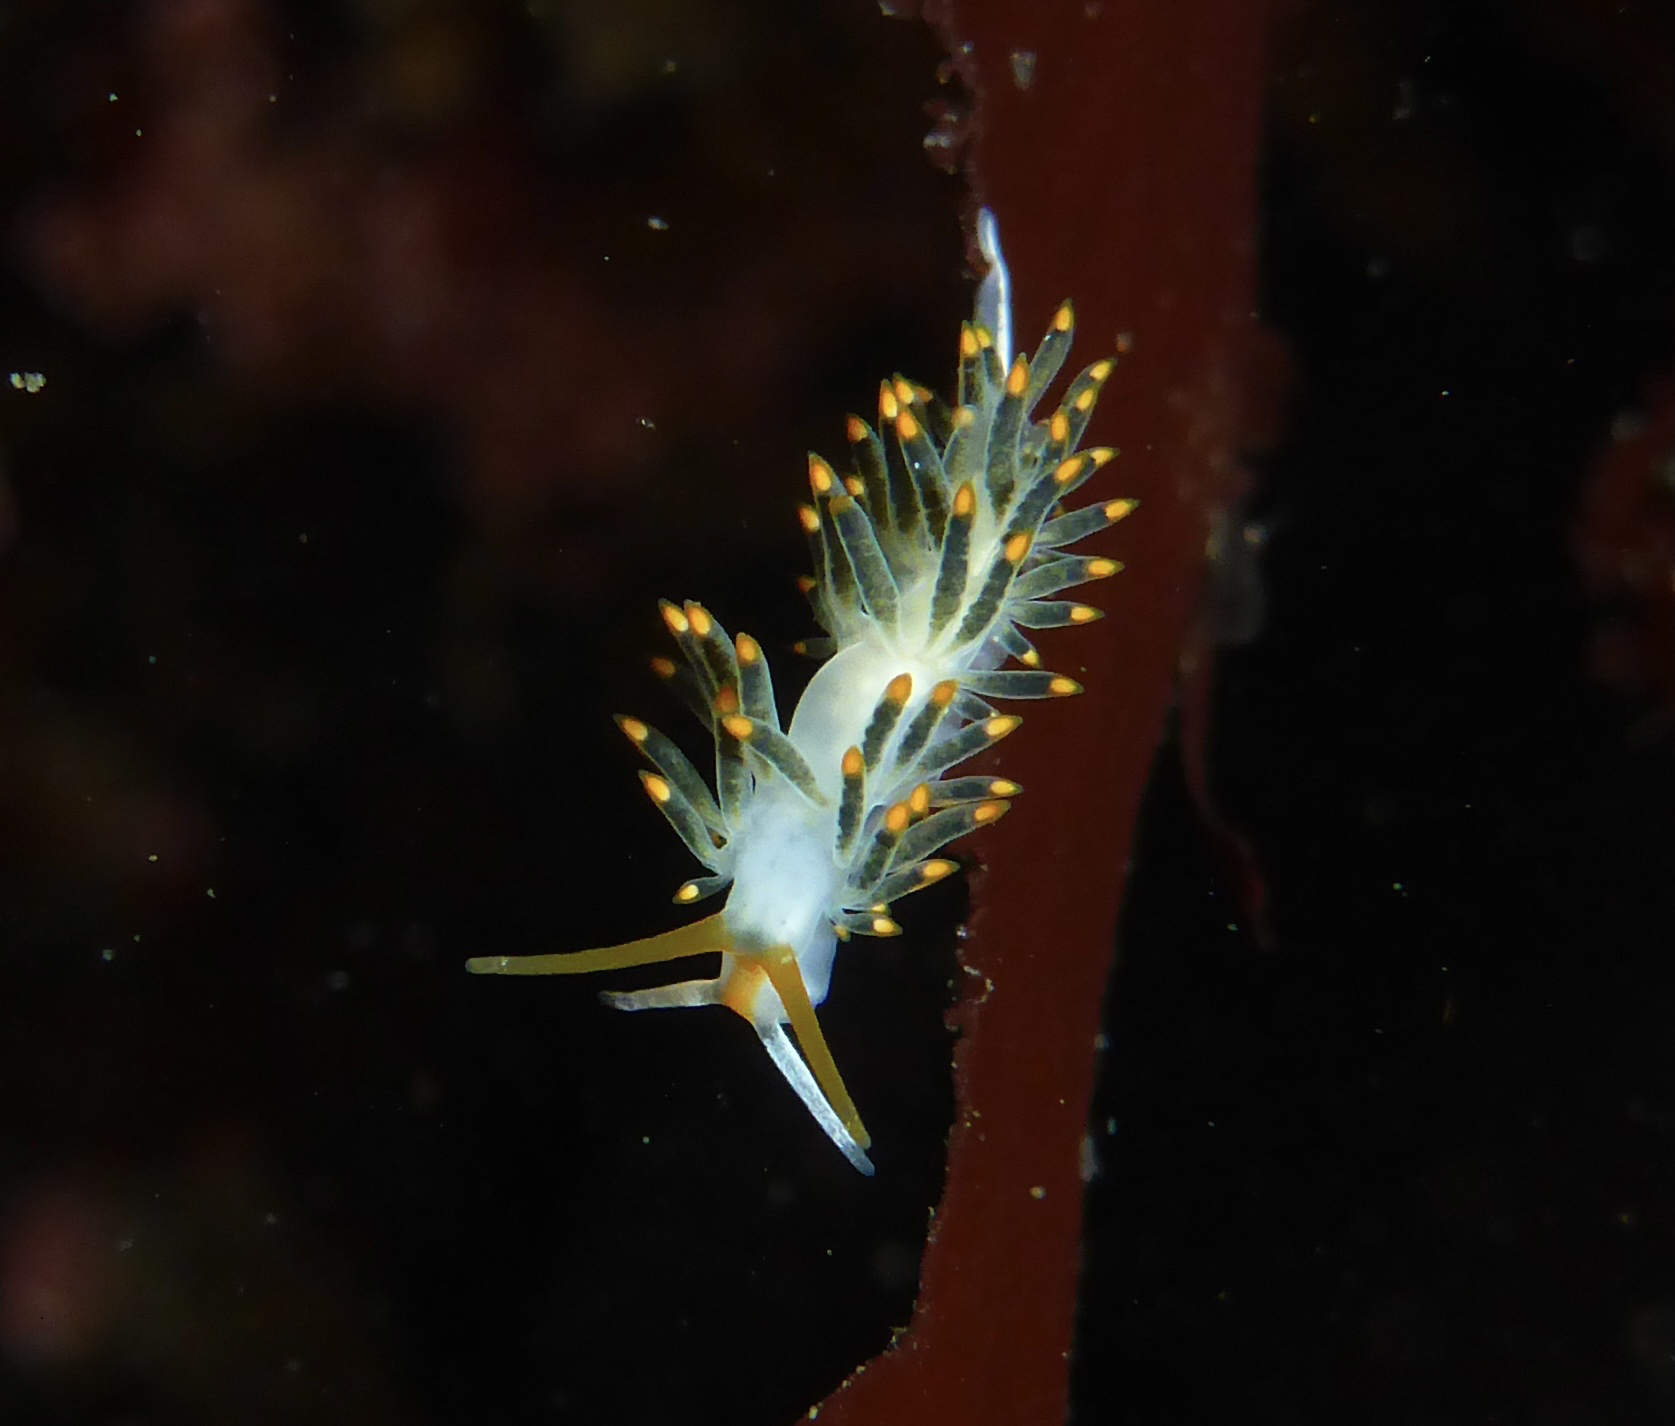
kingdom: Animalia
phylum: Mollusca
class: Gastropoda
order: Nudibranchia
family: Trinchesiidae
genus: Diaphoreolis
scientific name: Diaphoreolis lagunae
